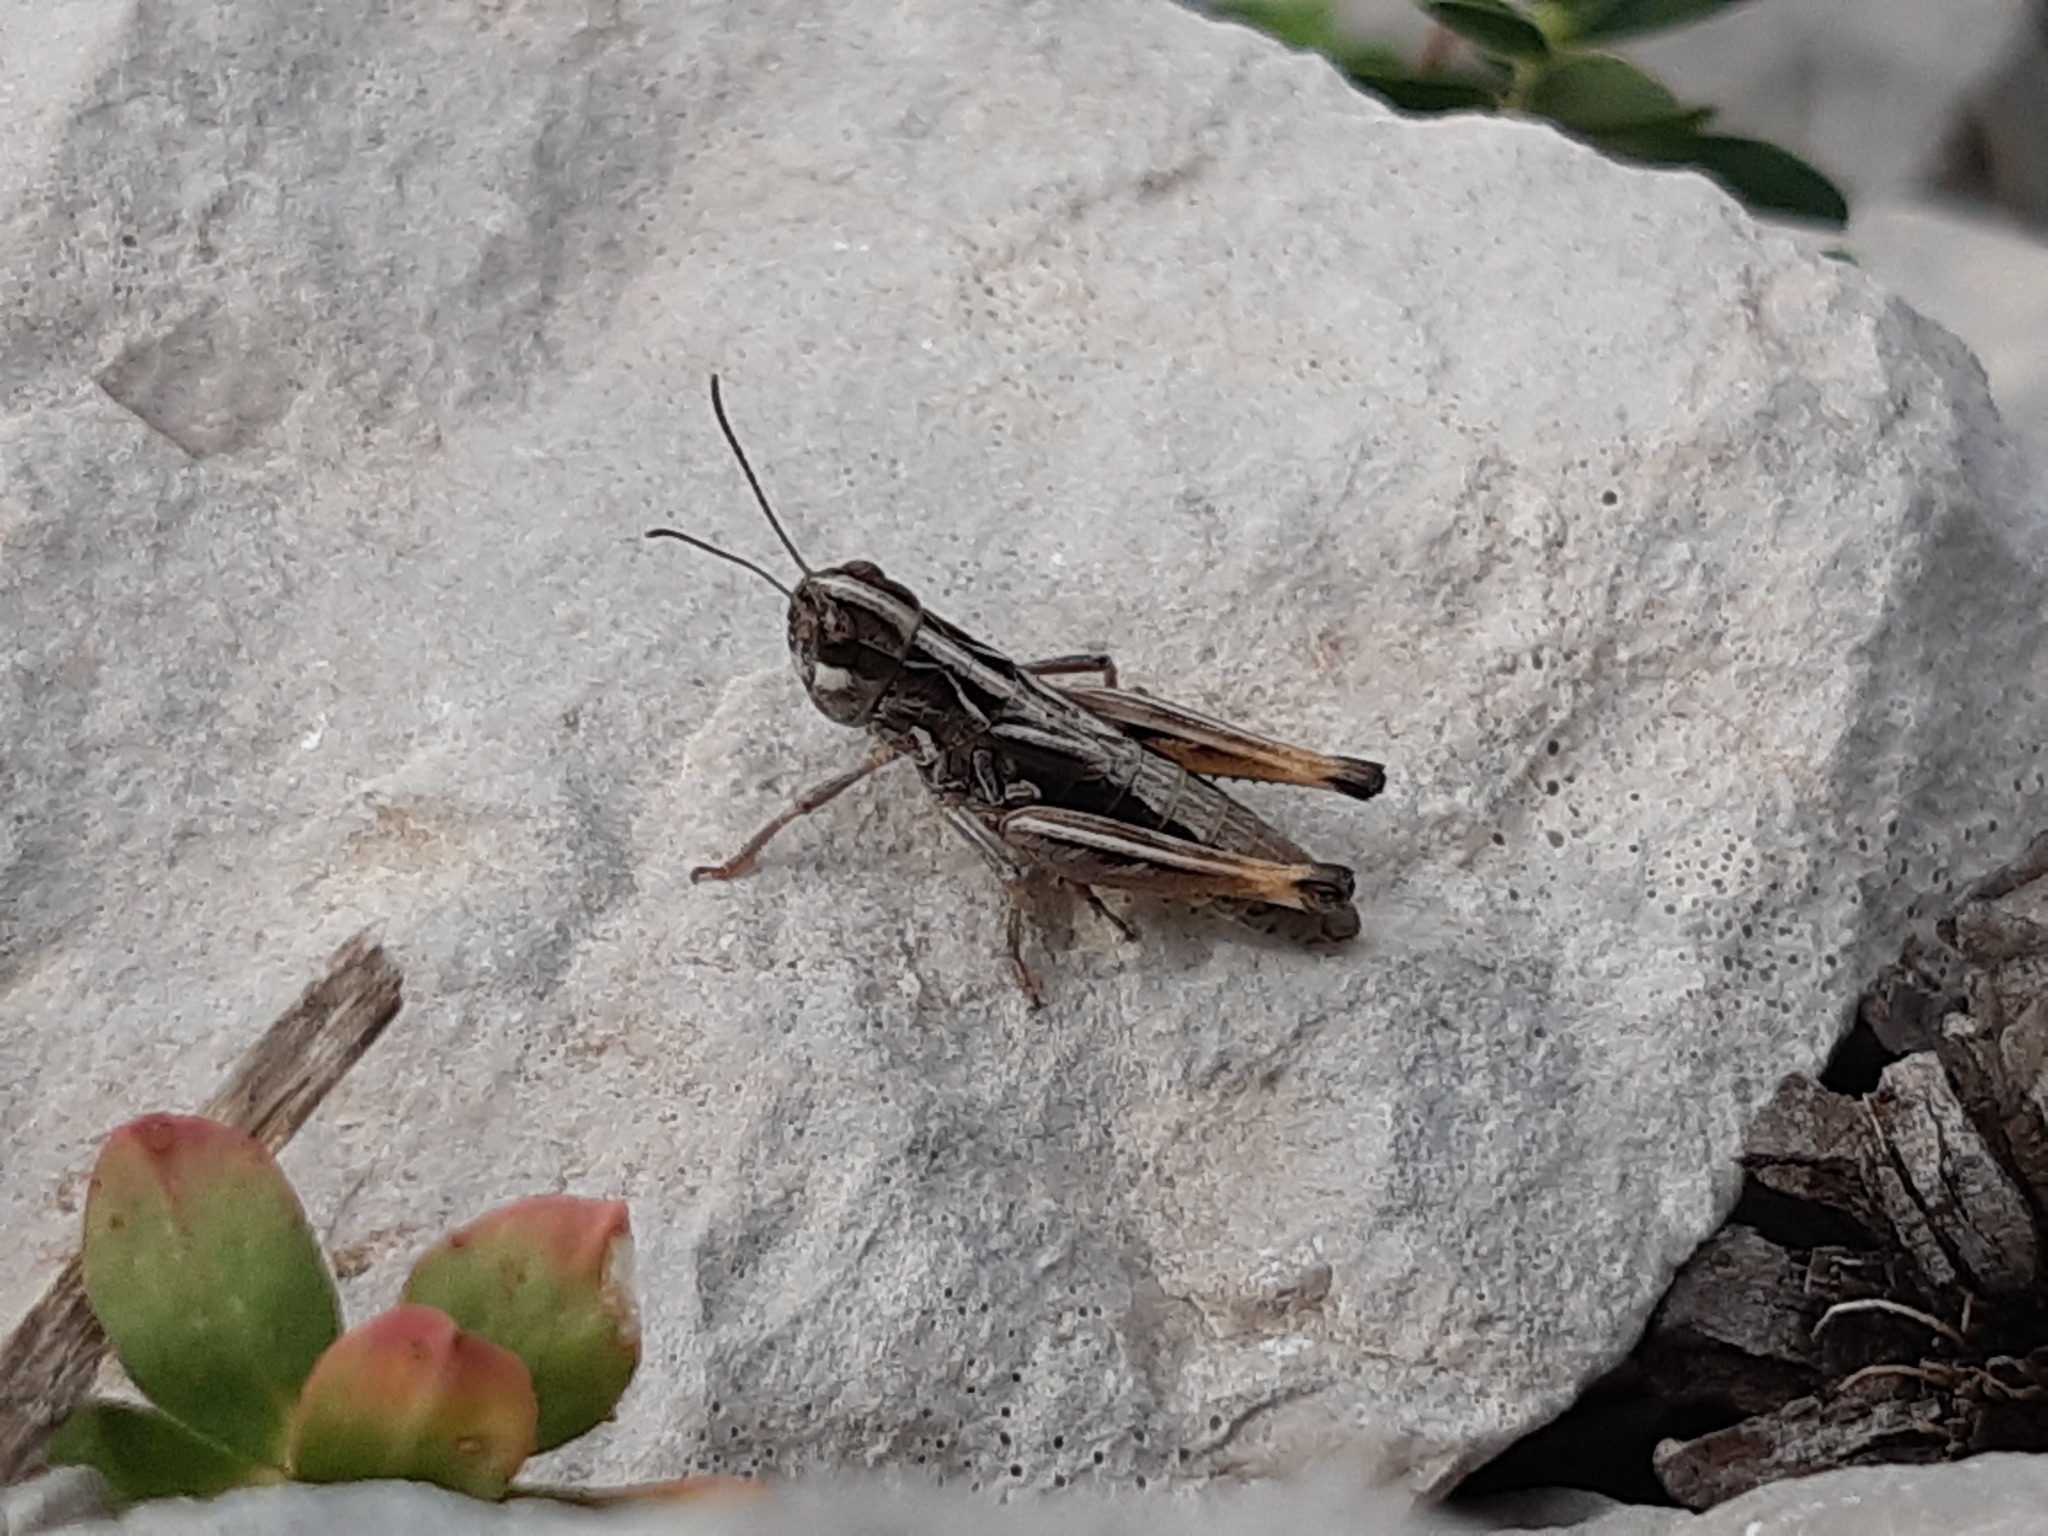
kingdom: Animalia
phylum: Arthropoda
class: Insecta
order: Orthoptera
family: Acrididae
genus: Rammeihippus
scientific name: Rammeihippus dinaricus
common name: Dinarian grasshopper
